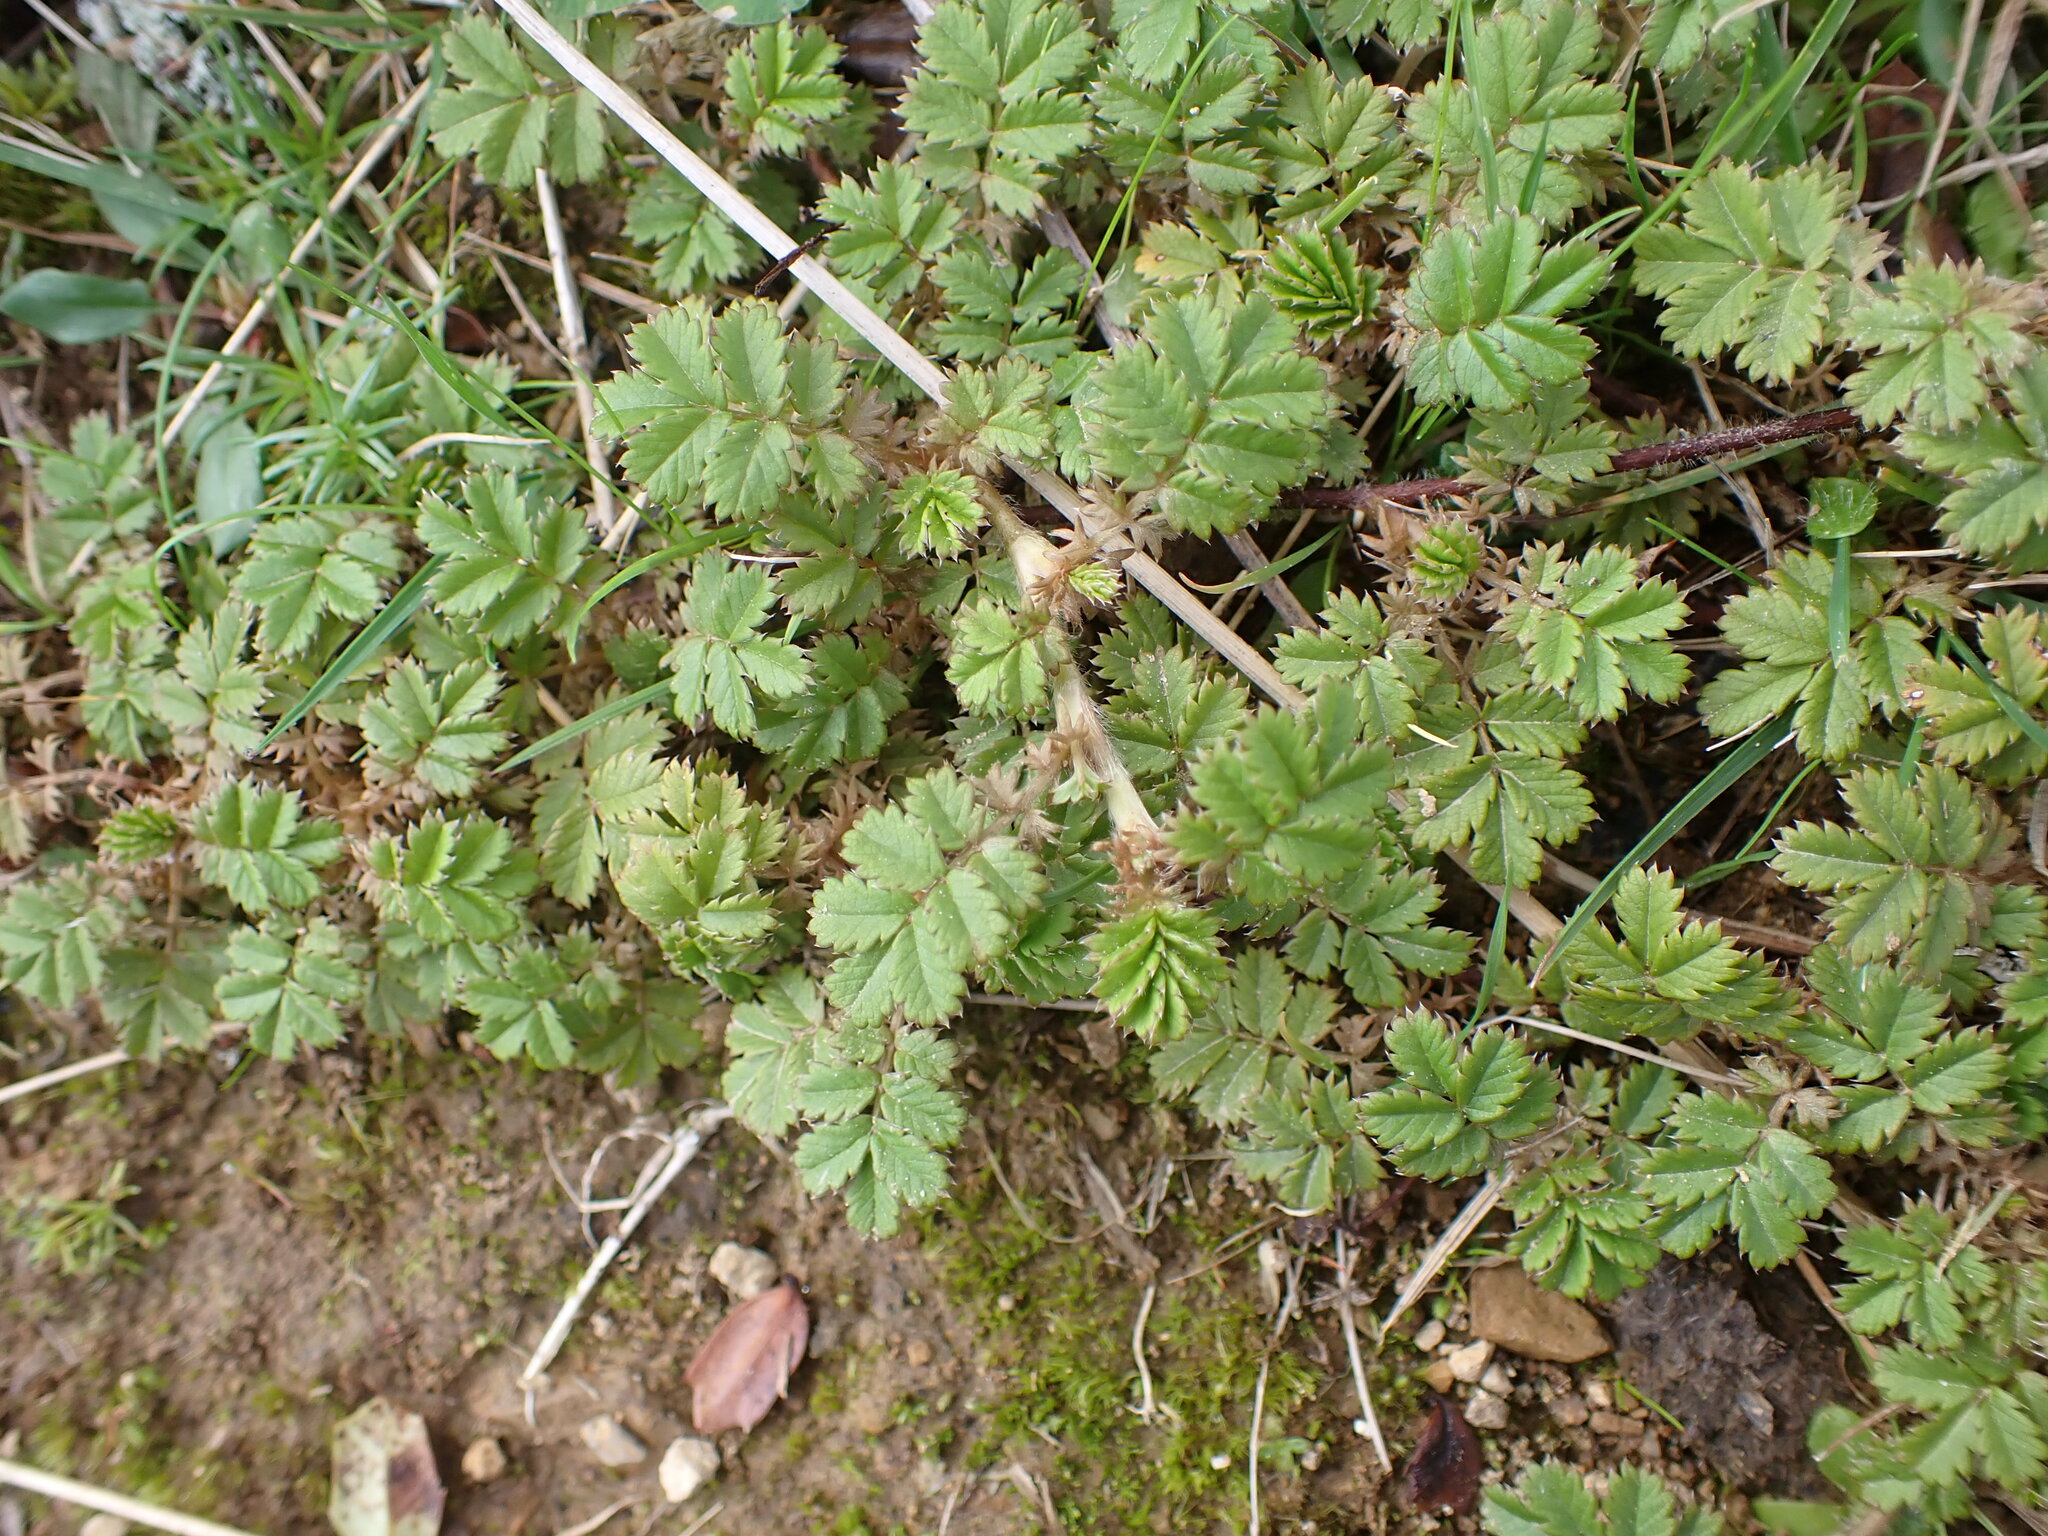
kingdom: Plantae
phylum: Tracheophyta
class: Magnoliopsida
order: Rosales
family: Rosaceae
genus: Acaena
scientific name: Acaena anserinifolia
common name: Bronze pirri-pirri-bur
